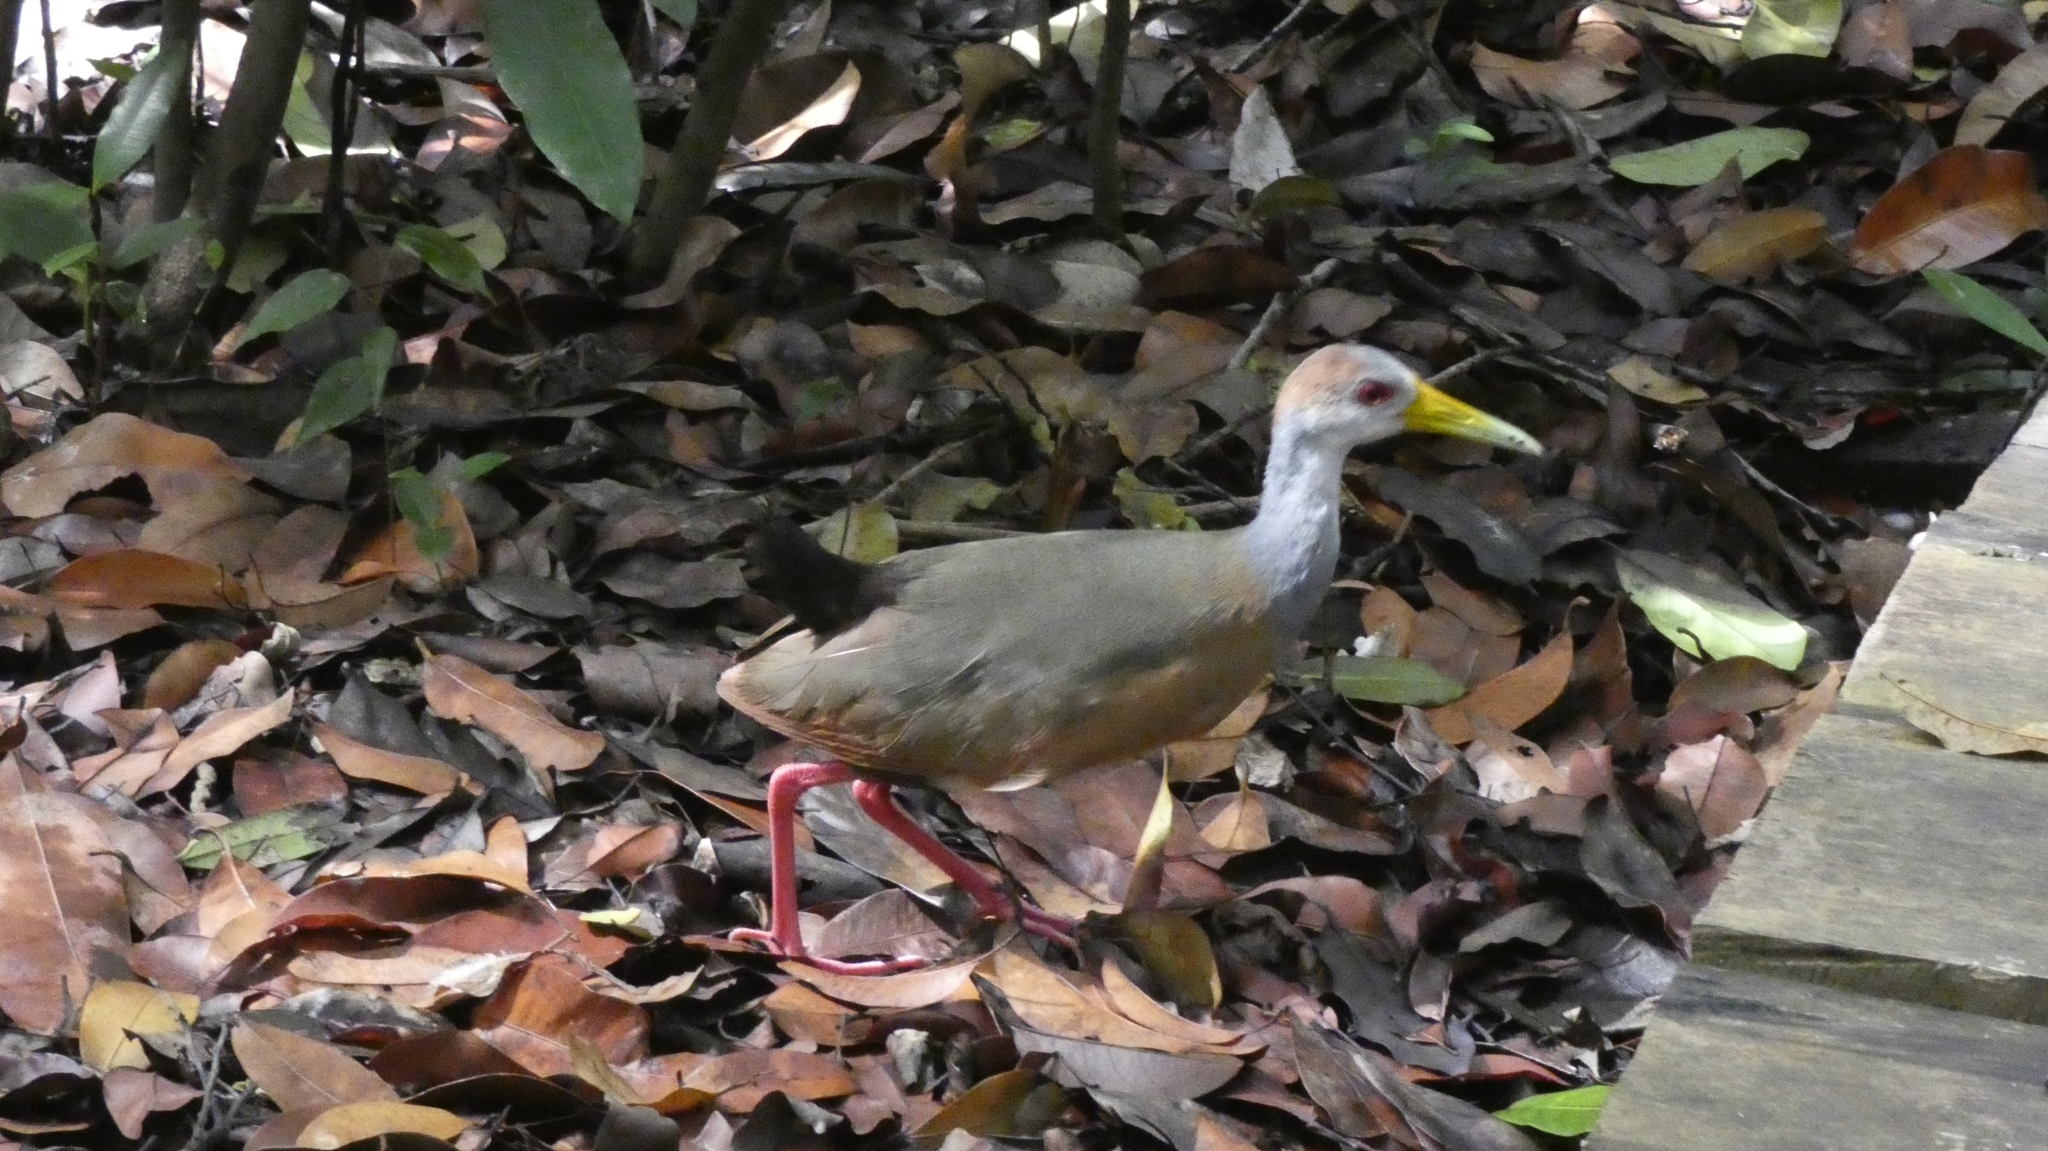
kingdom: Animalia
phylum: Chordata
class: Aves
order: Gruiformes
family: Rallidae
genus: Aramides
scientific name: Aramides albiventris
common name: Russet-naped wood-rail
